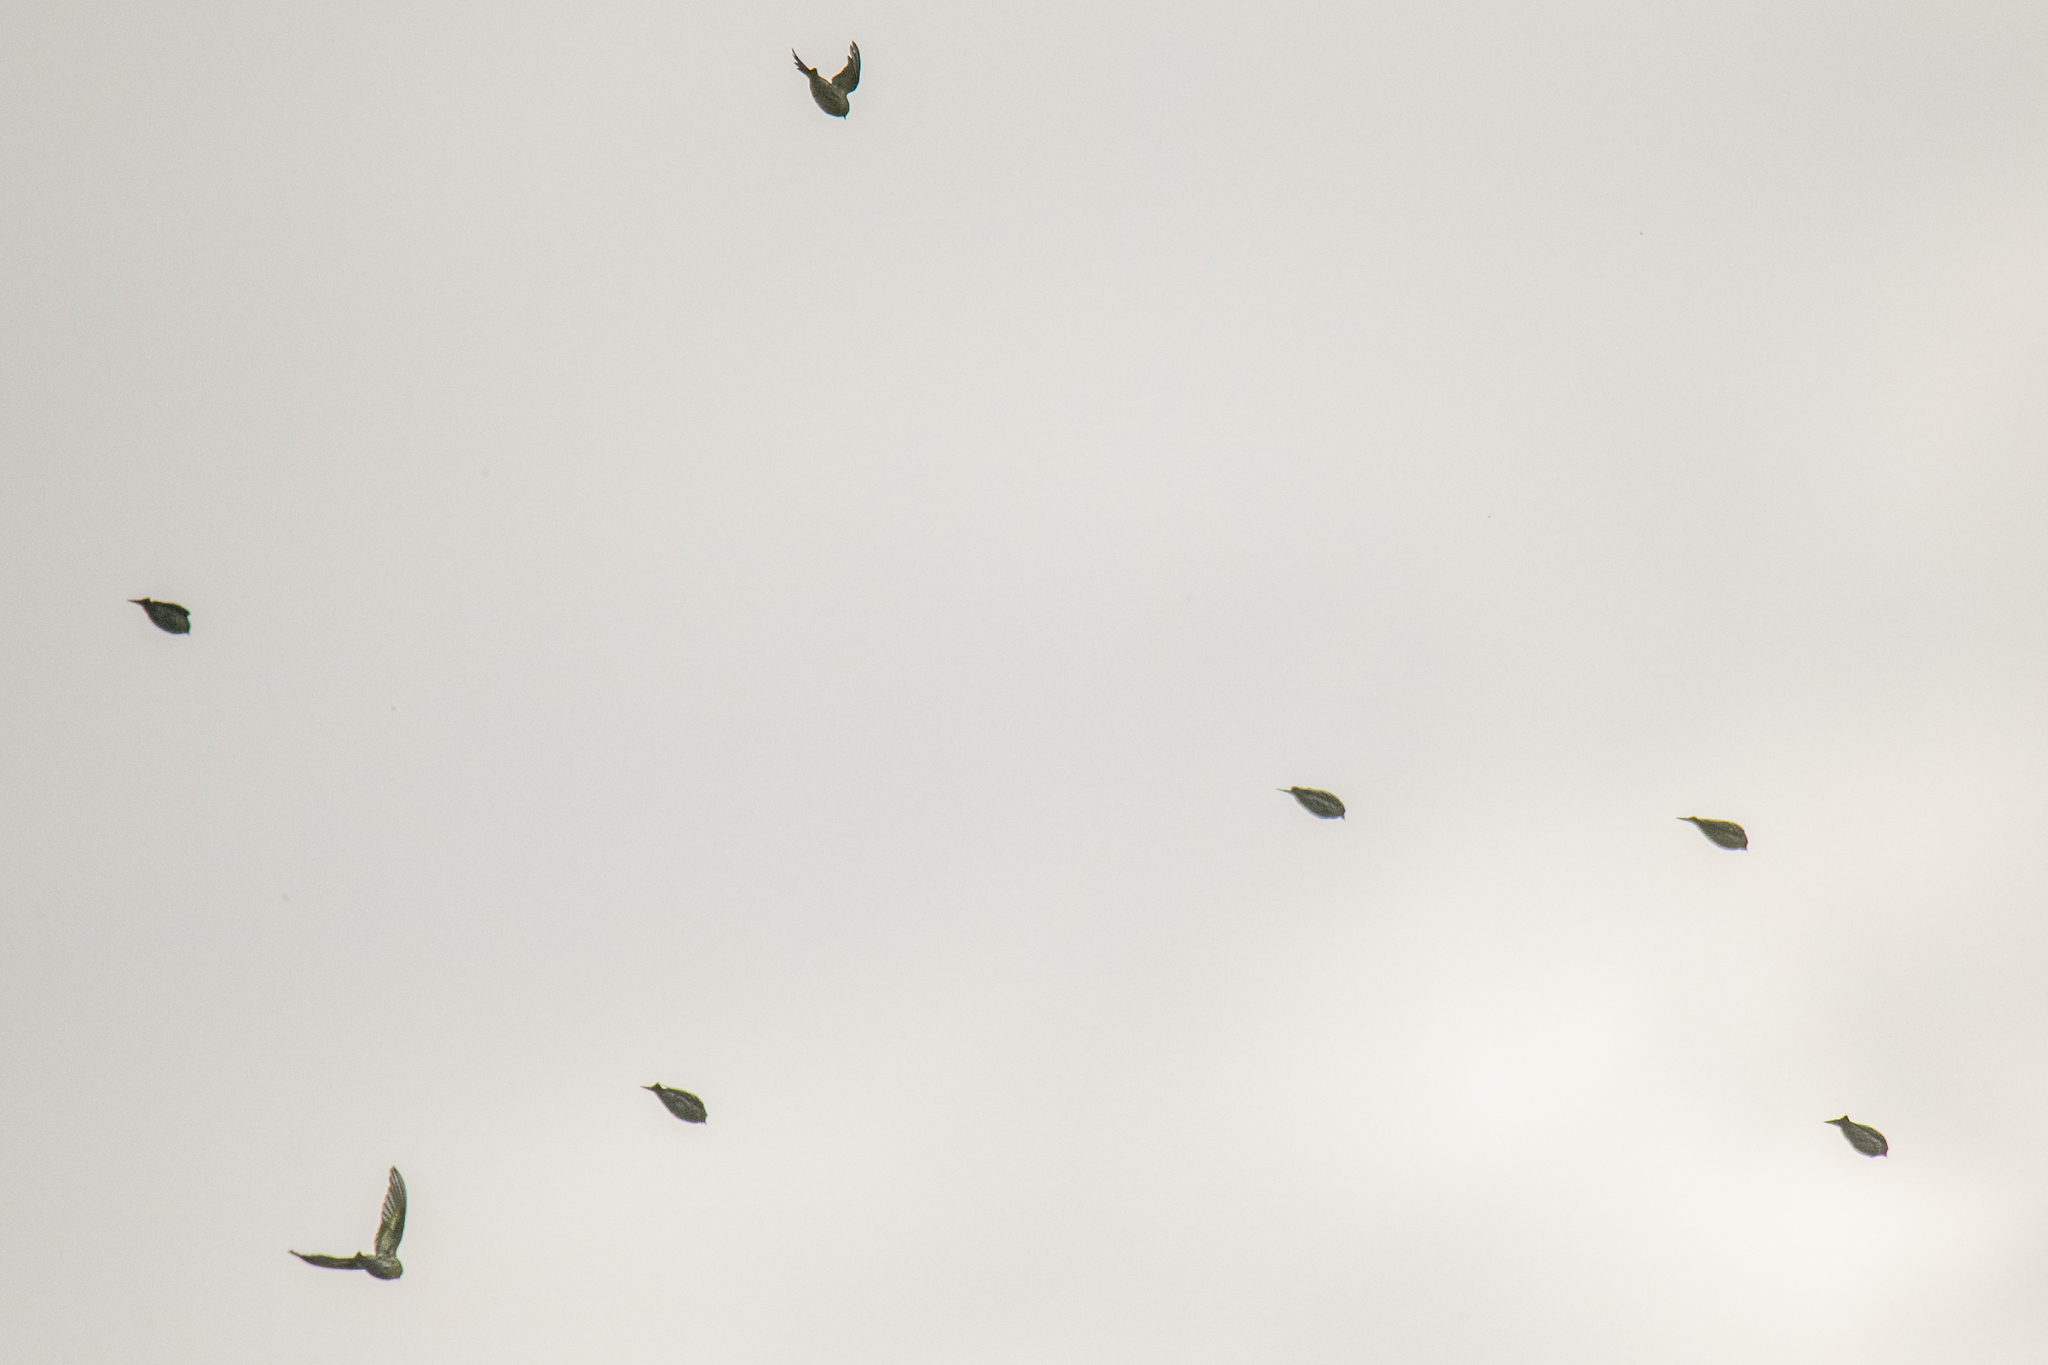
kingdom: Animalia
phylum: Chordata
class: Aves
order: Passeriformes
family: Fringillidae
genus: Spinus
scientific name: Spinus spinus
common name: Eurasian siskin
